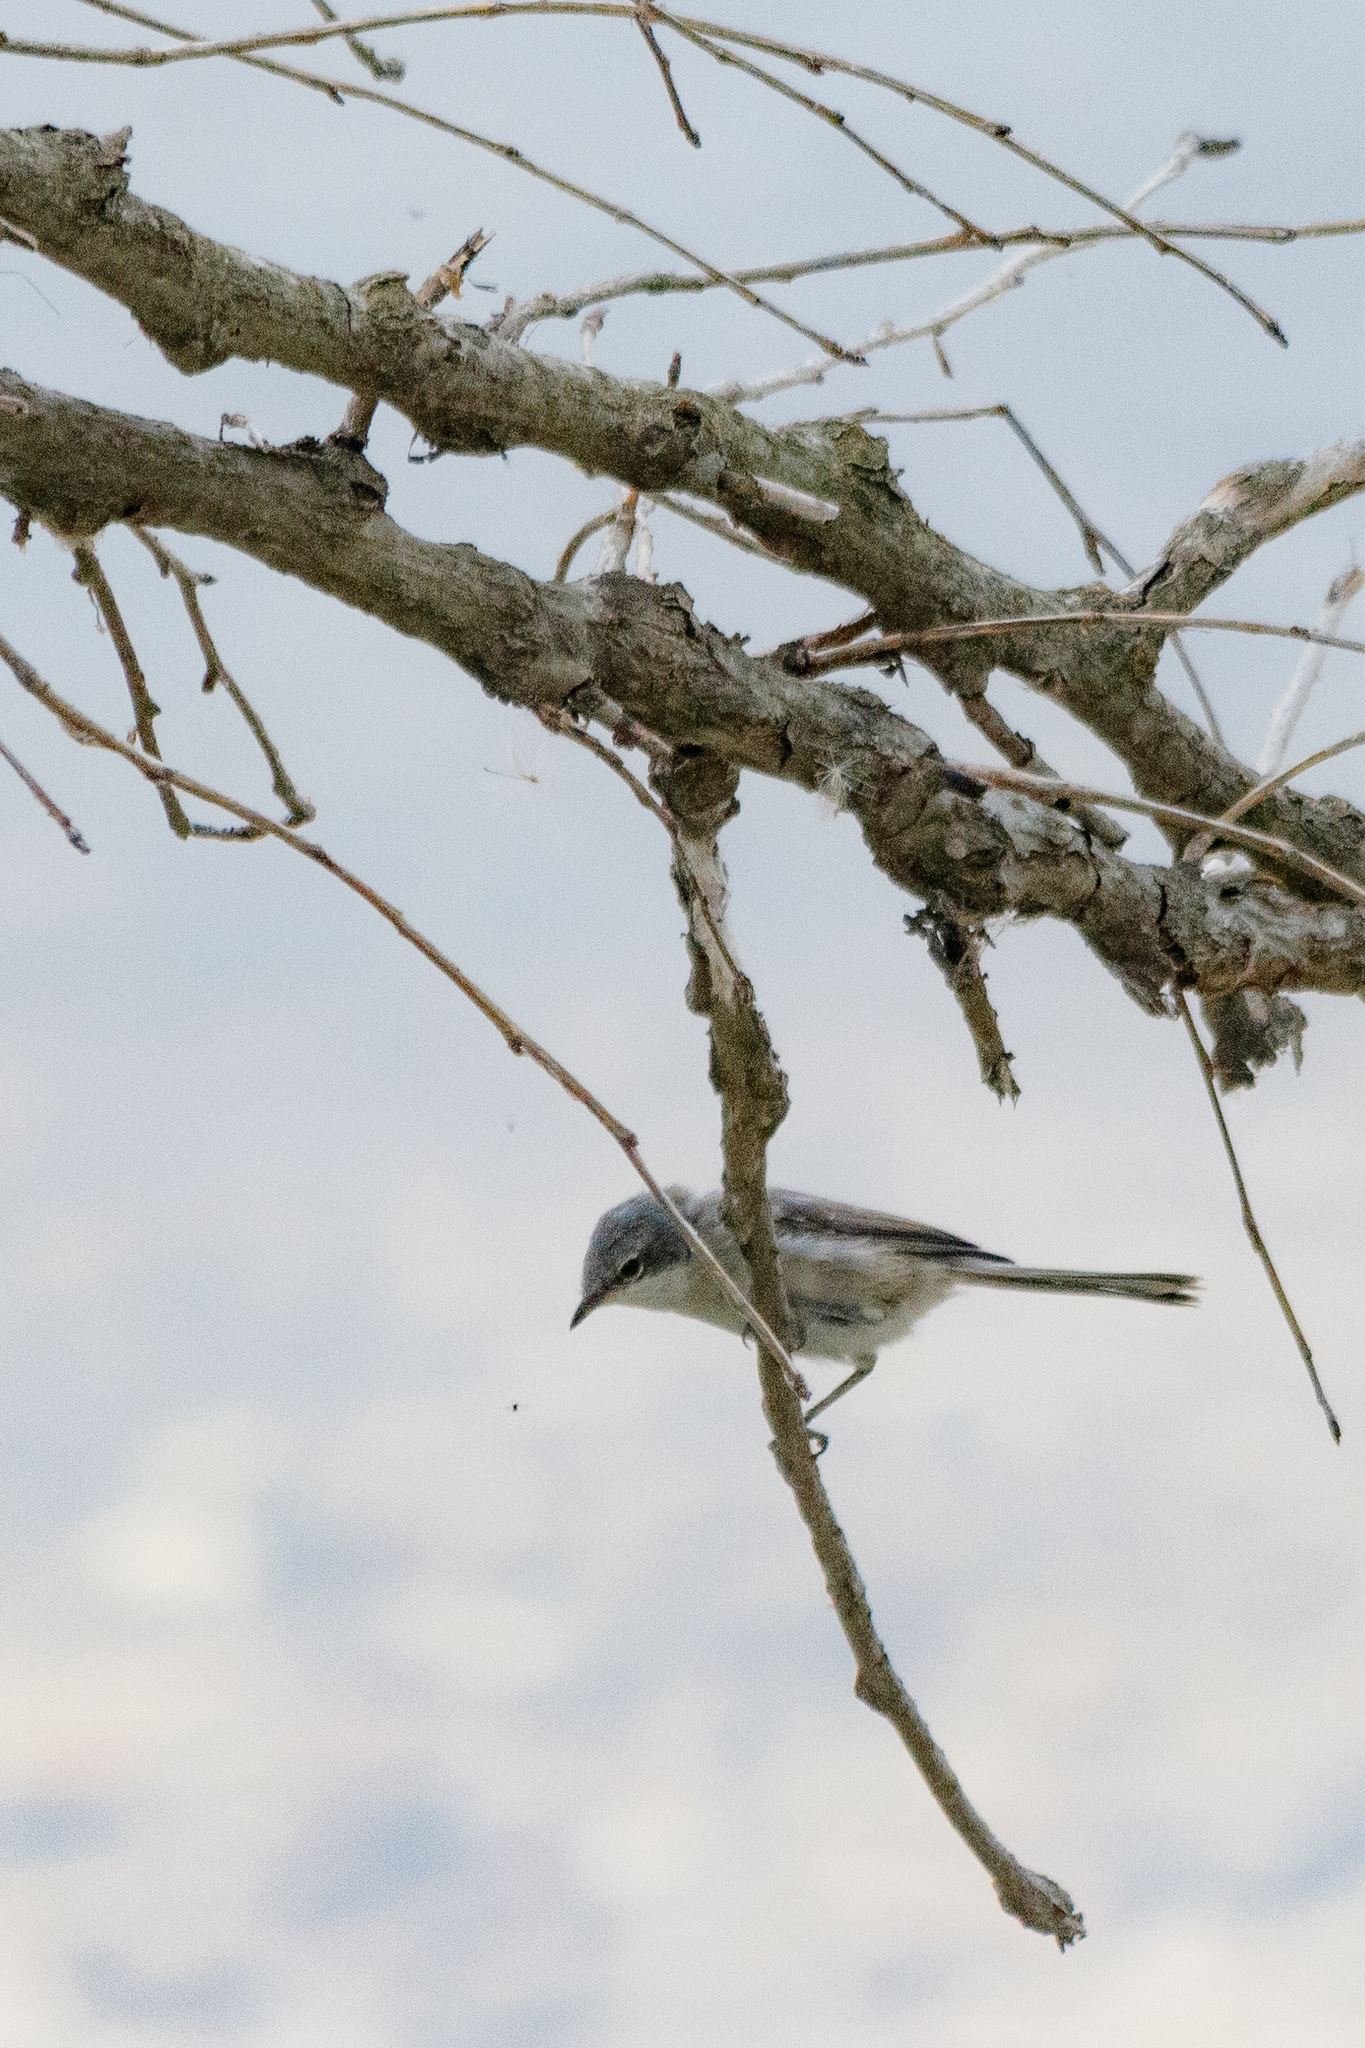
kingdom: Animalia
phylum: Chordata
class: Aves
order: Passeriformes
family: Sylviidae
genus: Sylvia
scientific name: Sylvia curruca
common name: Lesser whitethroat
